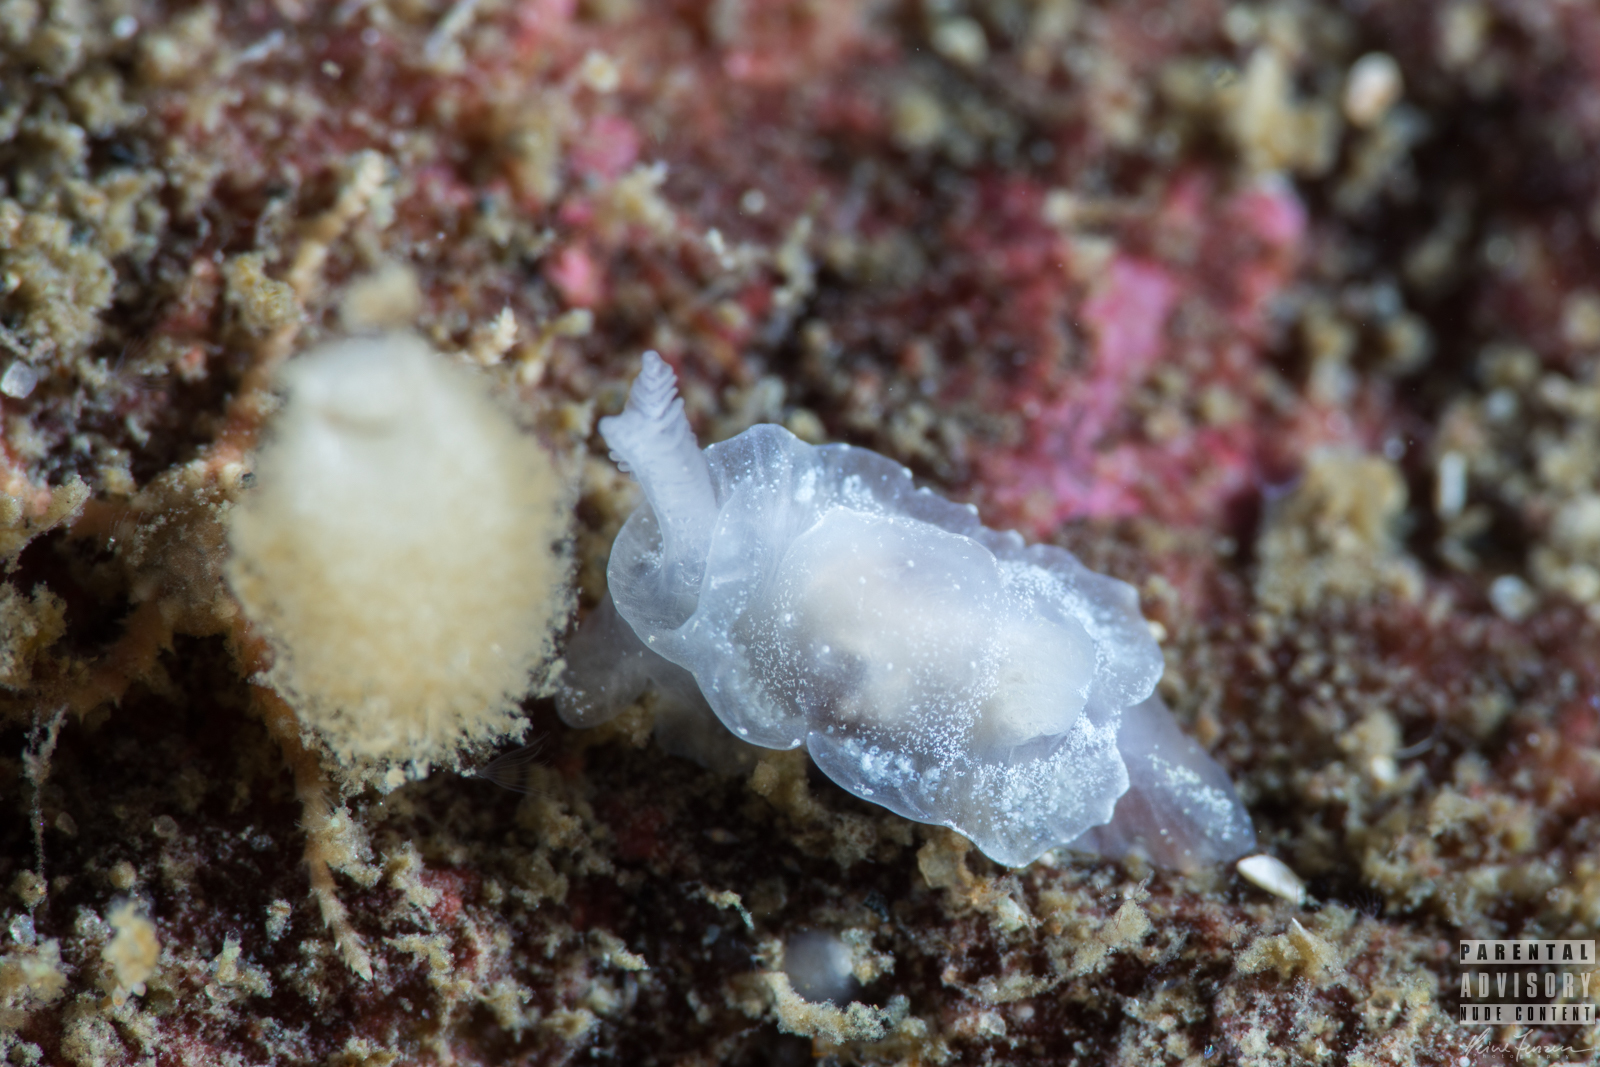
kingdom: Animalia
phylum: Mollusca
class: Gastropoda
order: Nudibranchia
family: Goniodorididae
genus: Okenia
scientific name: Okenia
